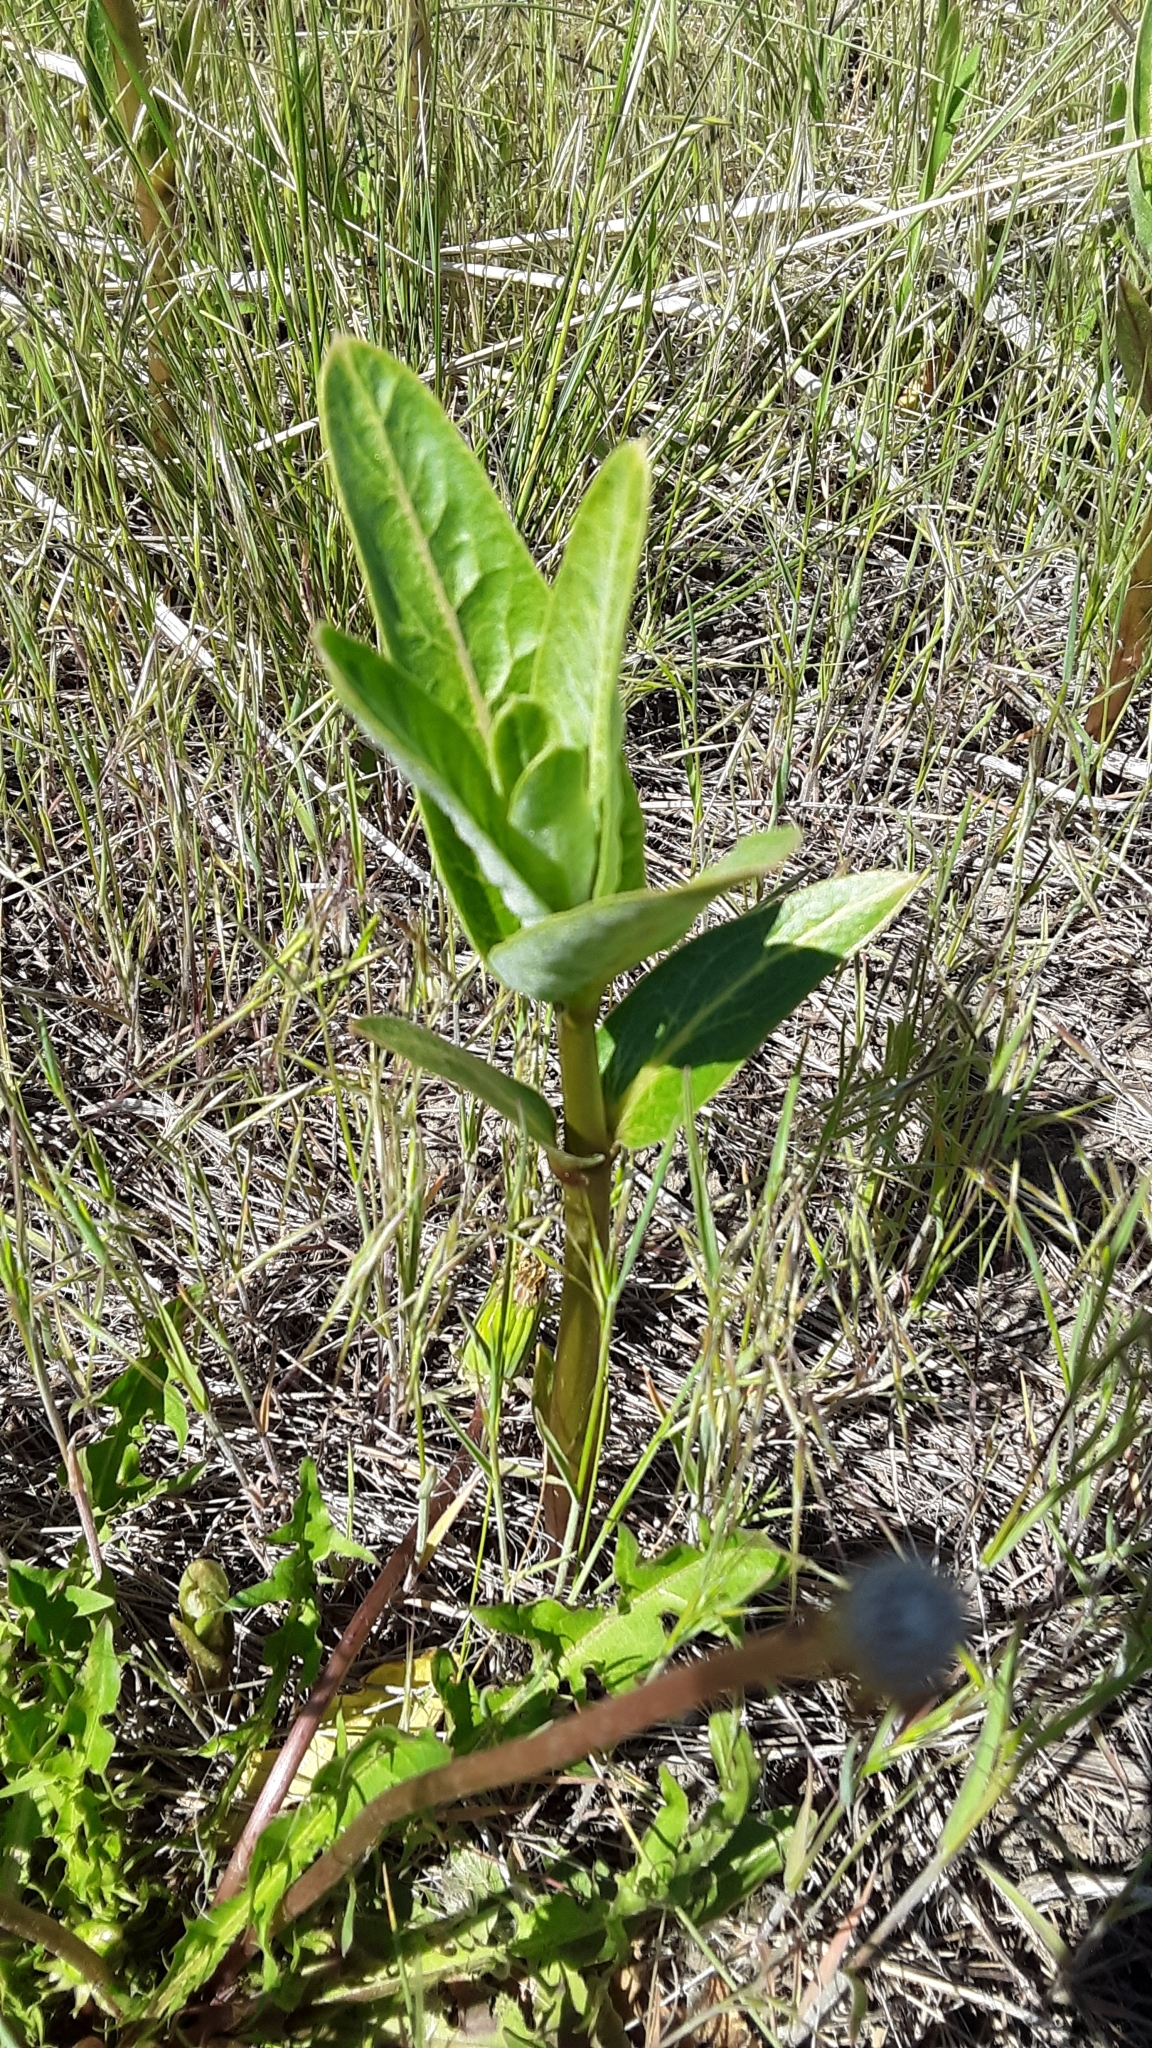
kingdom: Plantae
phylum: Tracheophyta
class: Magnoliopsida
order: Gentianales
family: Apocynaceae
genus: Asclepias
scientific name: Asclepias speciosa
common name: Showy milkweed
